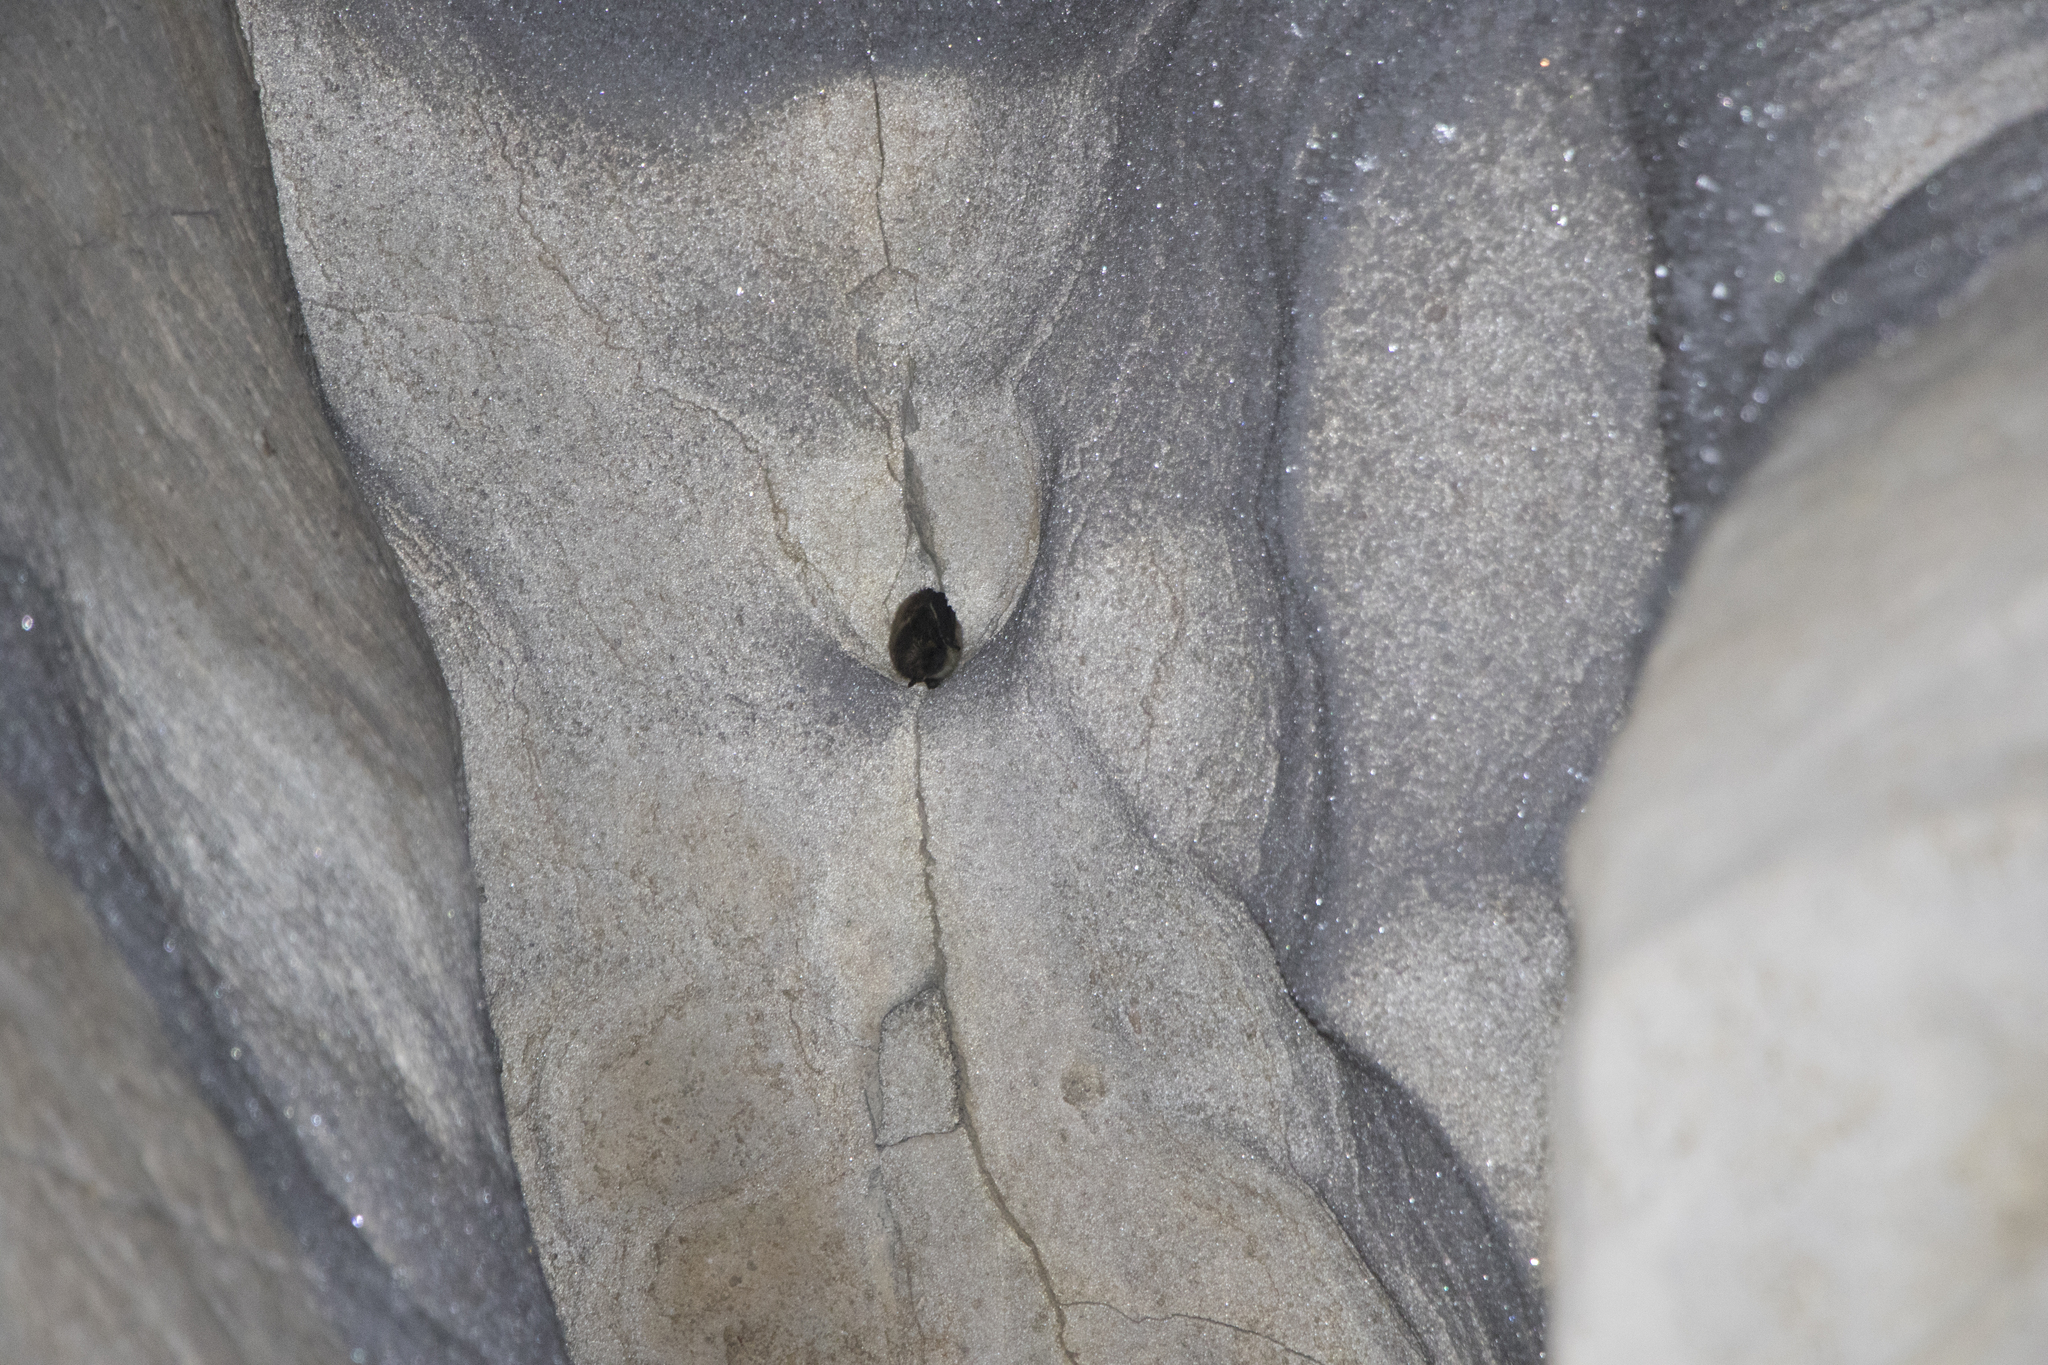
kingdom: Animalia
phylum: Chordata
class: Mammalia
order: Chiroptera
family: Vespertilionidae
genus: Eptesicus
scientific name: Eptesicus nilssonii
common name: Northern bat
